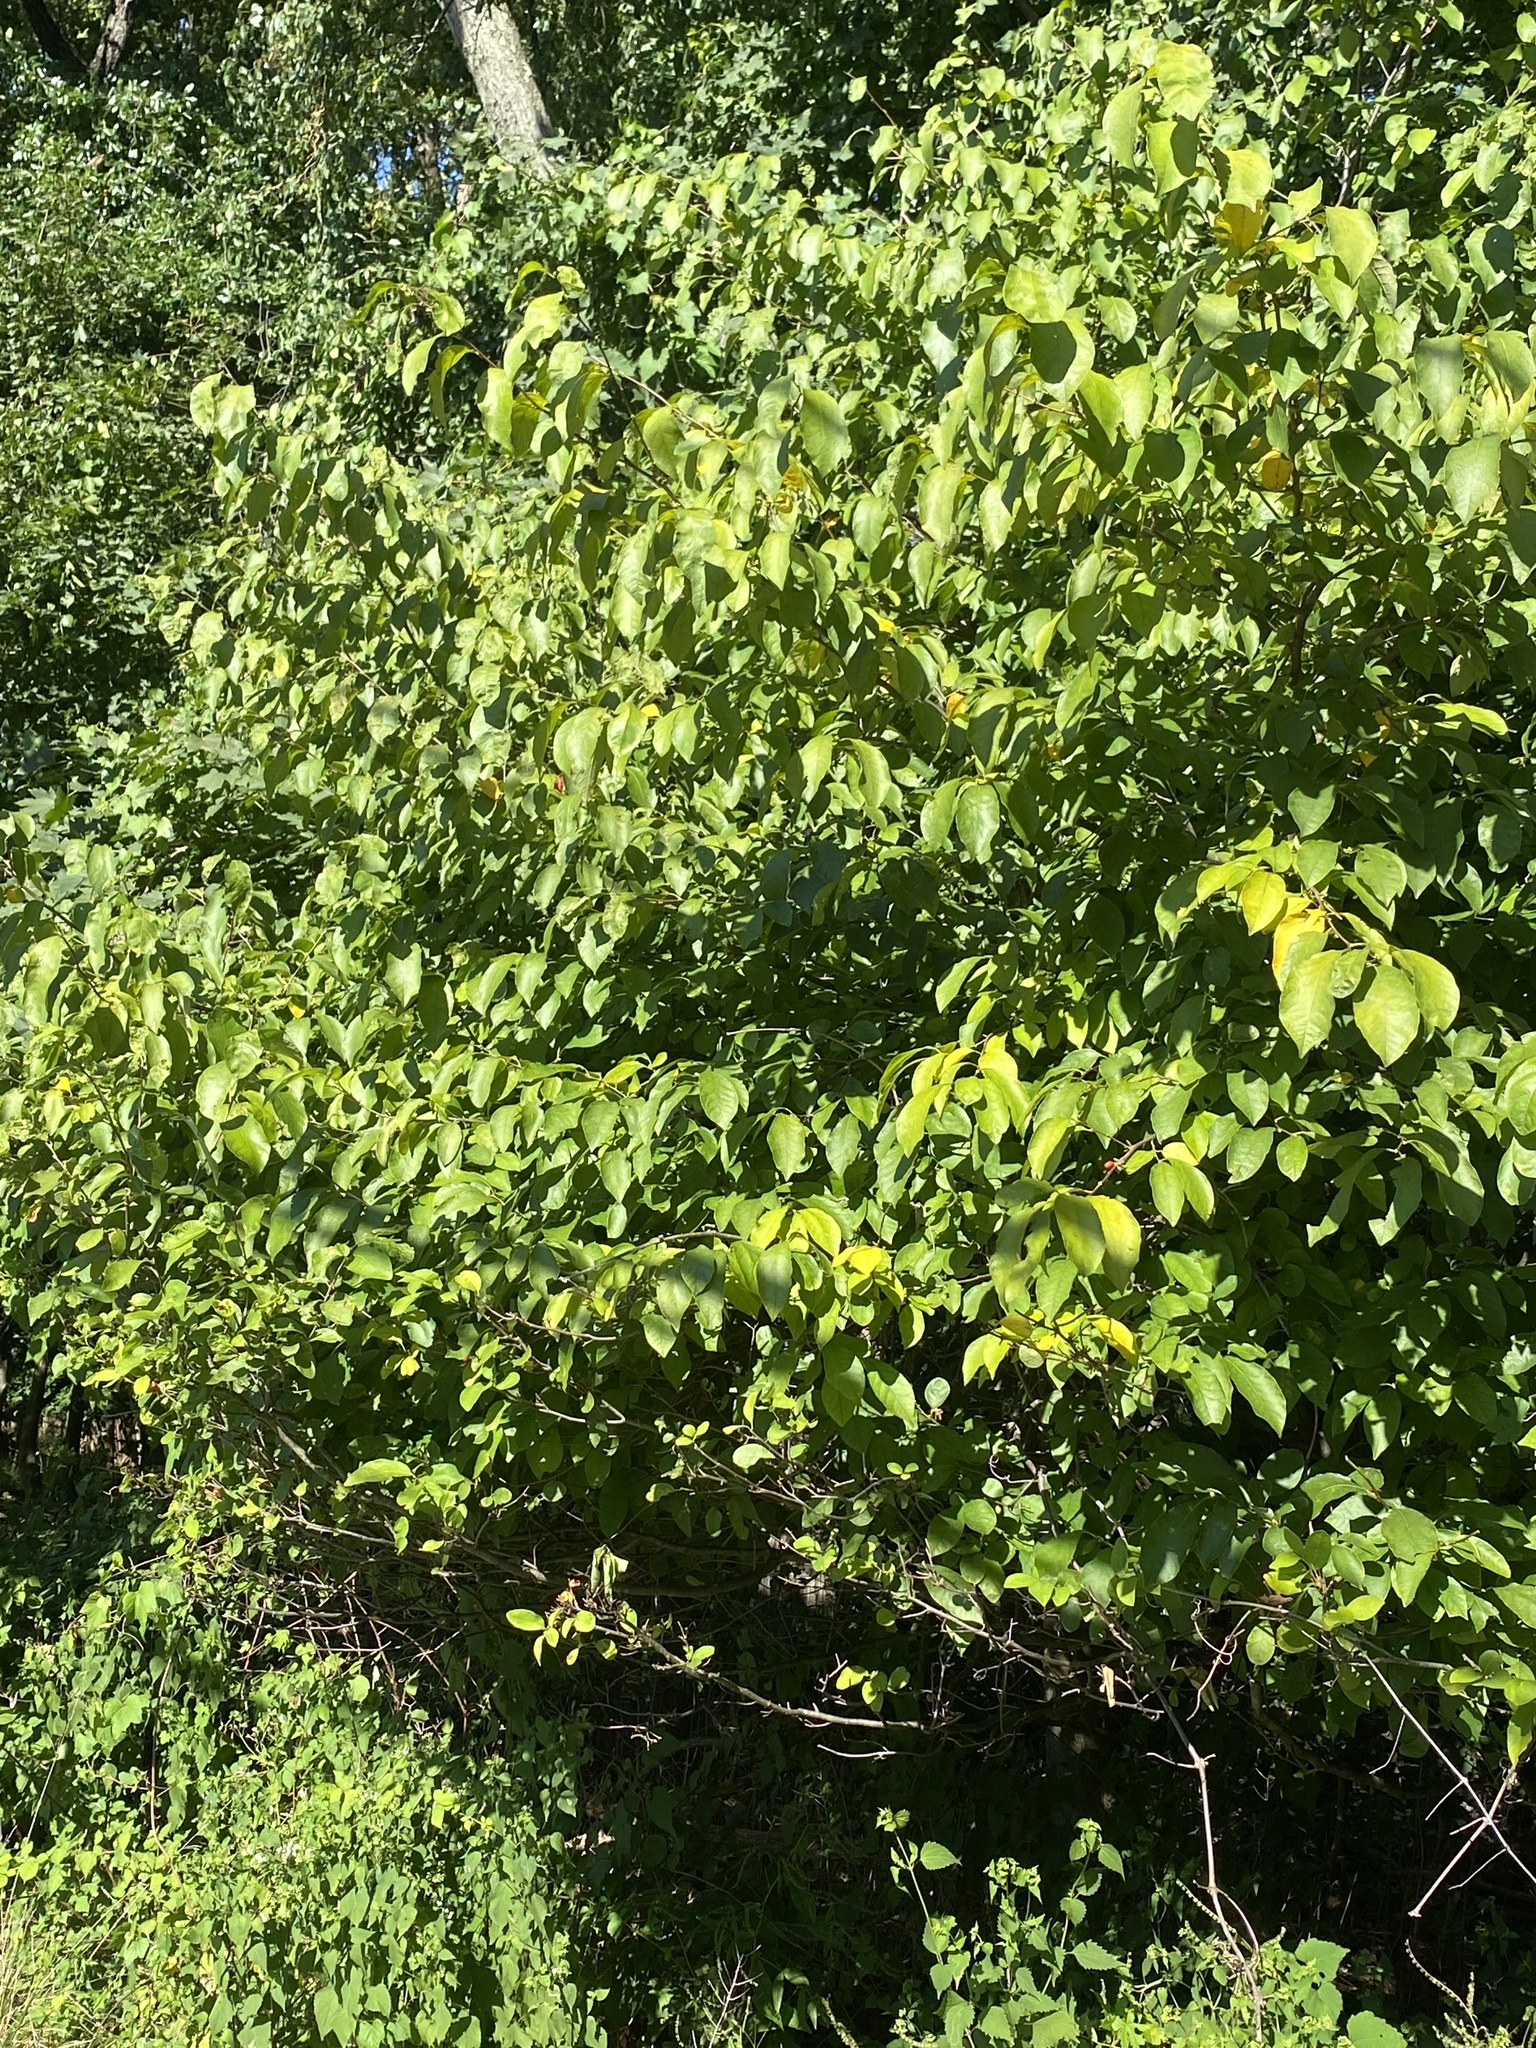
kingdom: Plantae
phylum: Tracheophyta
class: Magnoliopsida
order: Laurales
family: Lauraceae
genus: Lindera
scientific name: Lindera benzoin
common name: Spicebush
